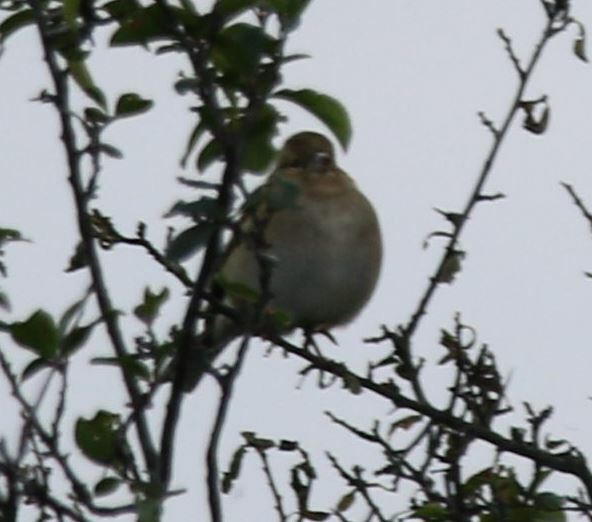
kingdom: Animalia
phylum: Chordata
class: Aves
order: Passeriformes
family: Fringillidae
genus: Fringilla
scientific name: Fringilla coelebs
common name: Common chaffinch
